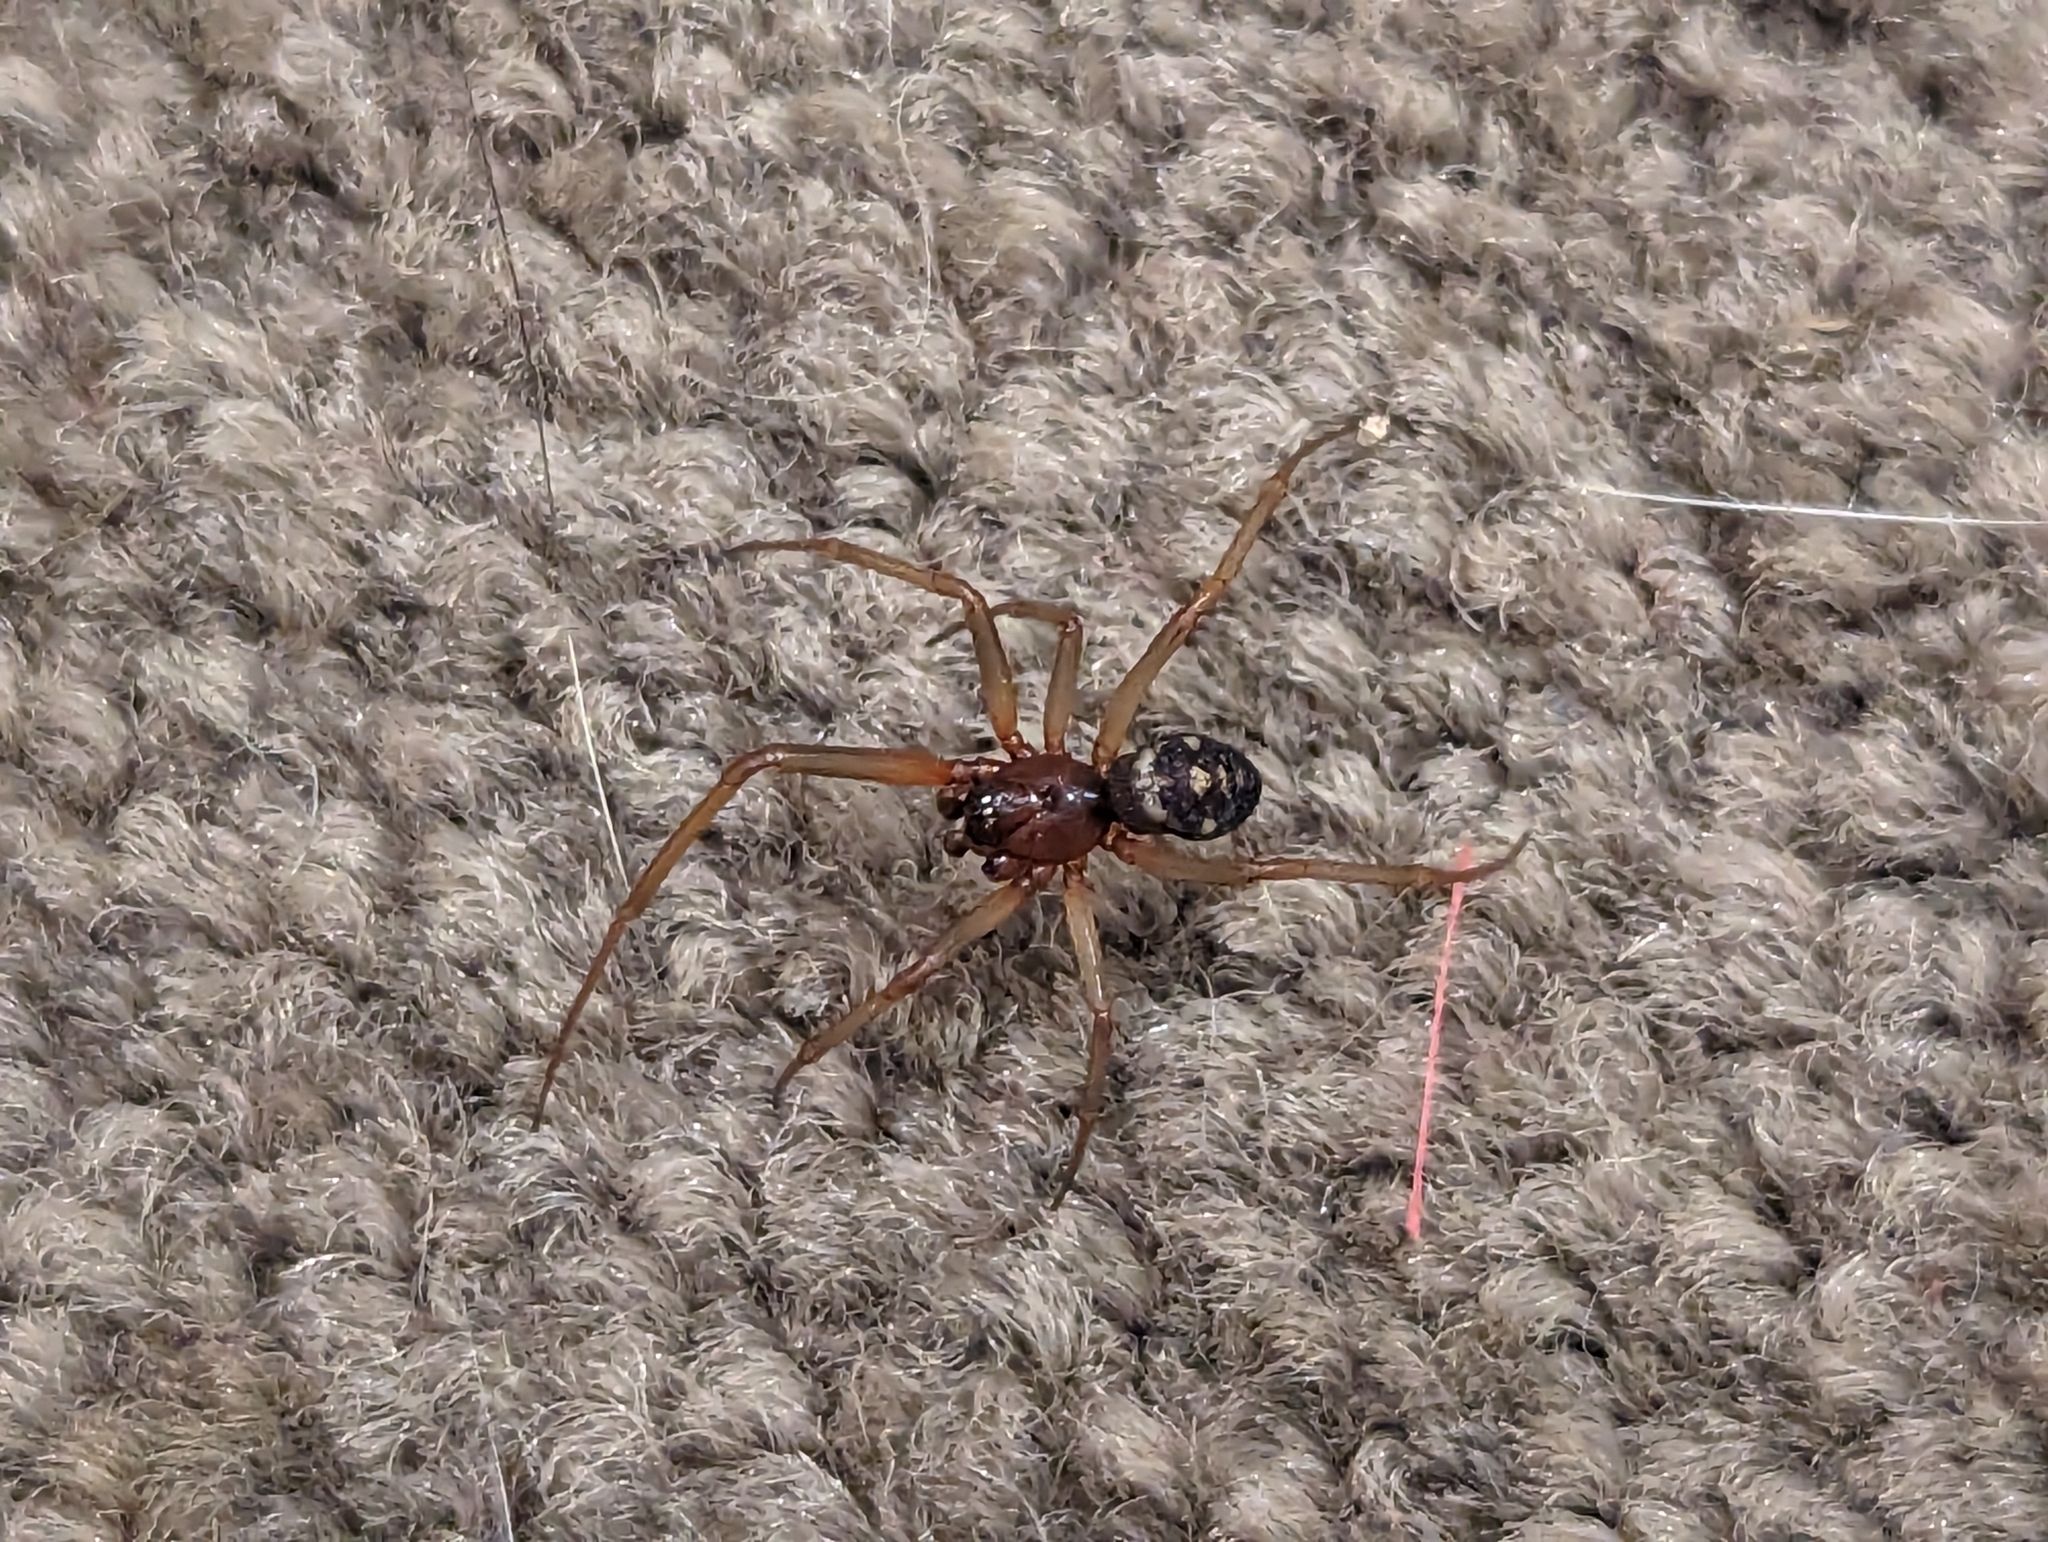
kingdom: Animalia
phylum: Arthropoda
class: Arachnida
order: Araneae
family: Theridiidae
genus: Steatoda
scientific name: Steatoda grossa
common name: False black widow
